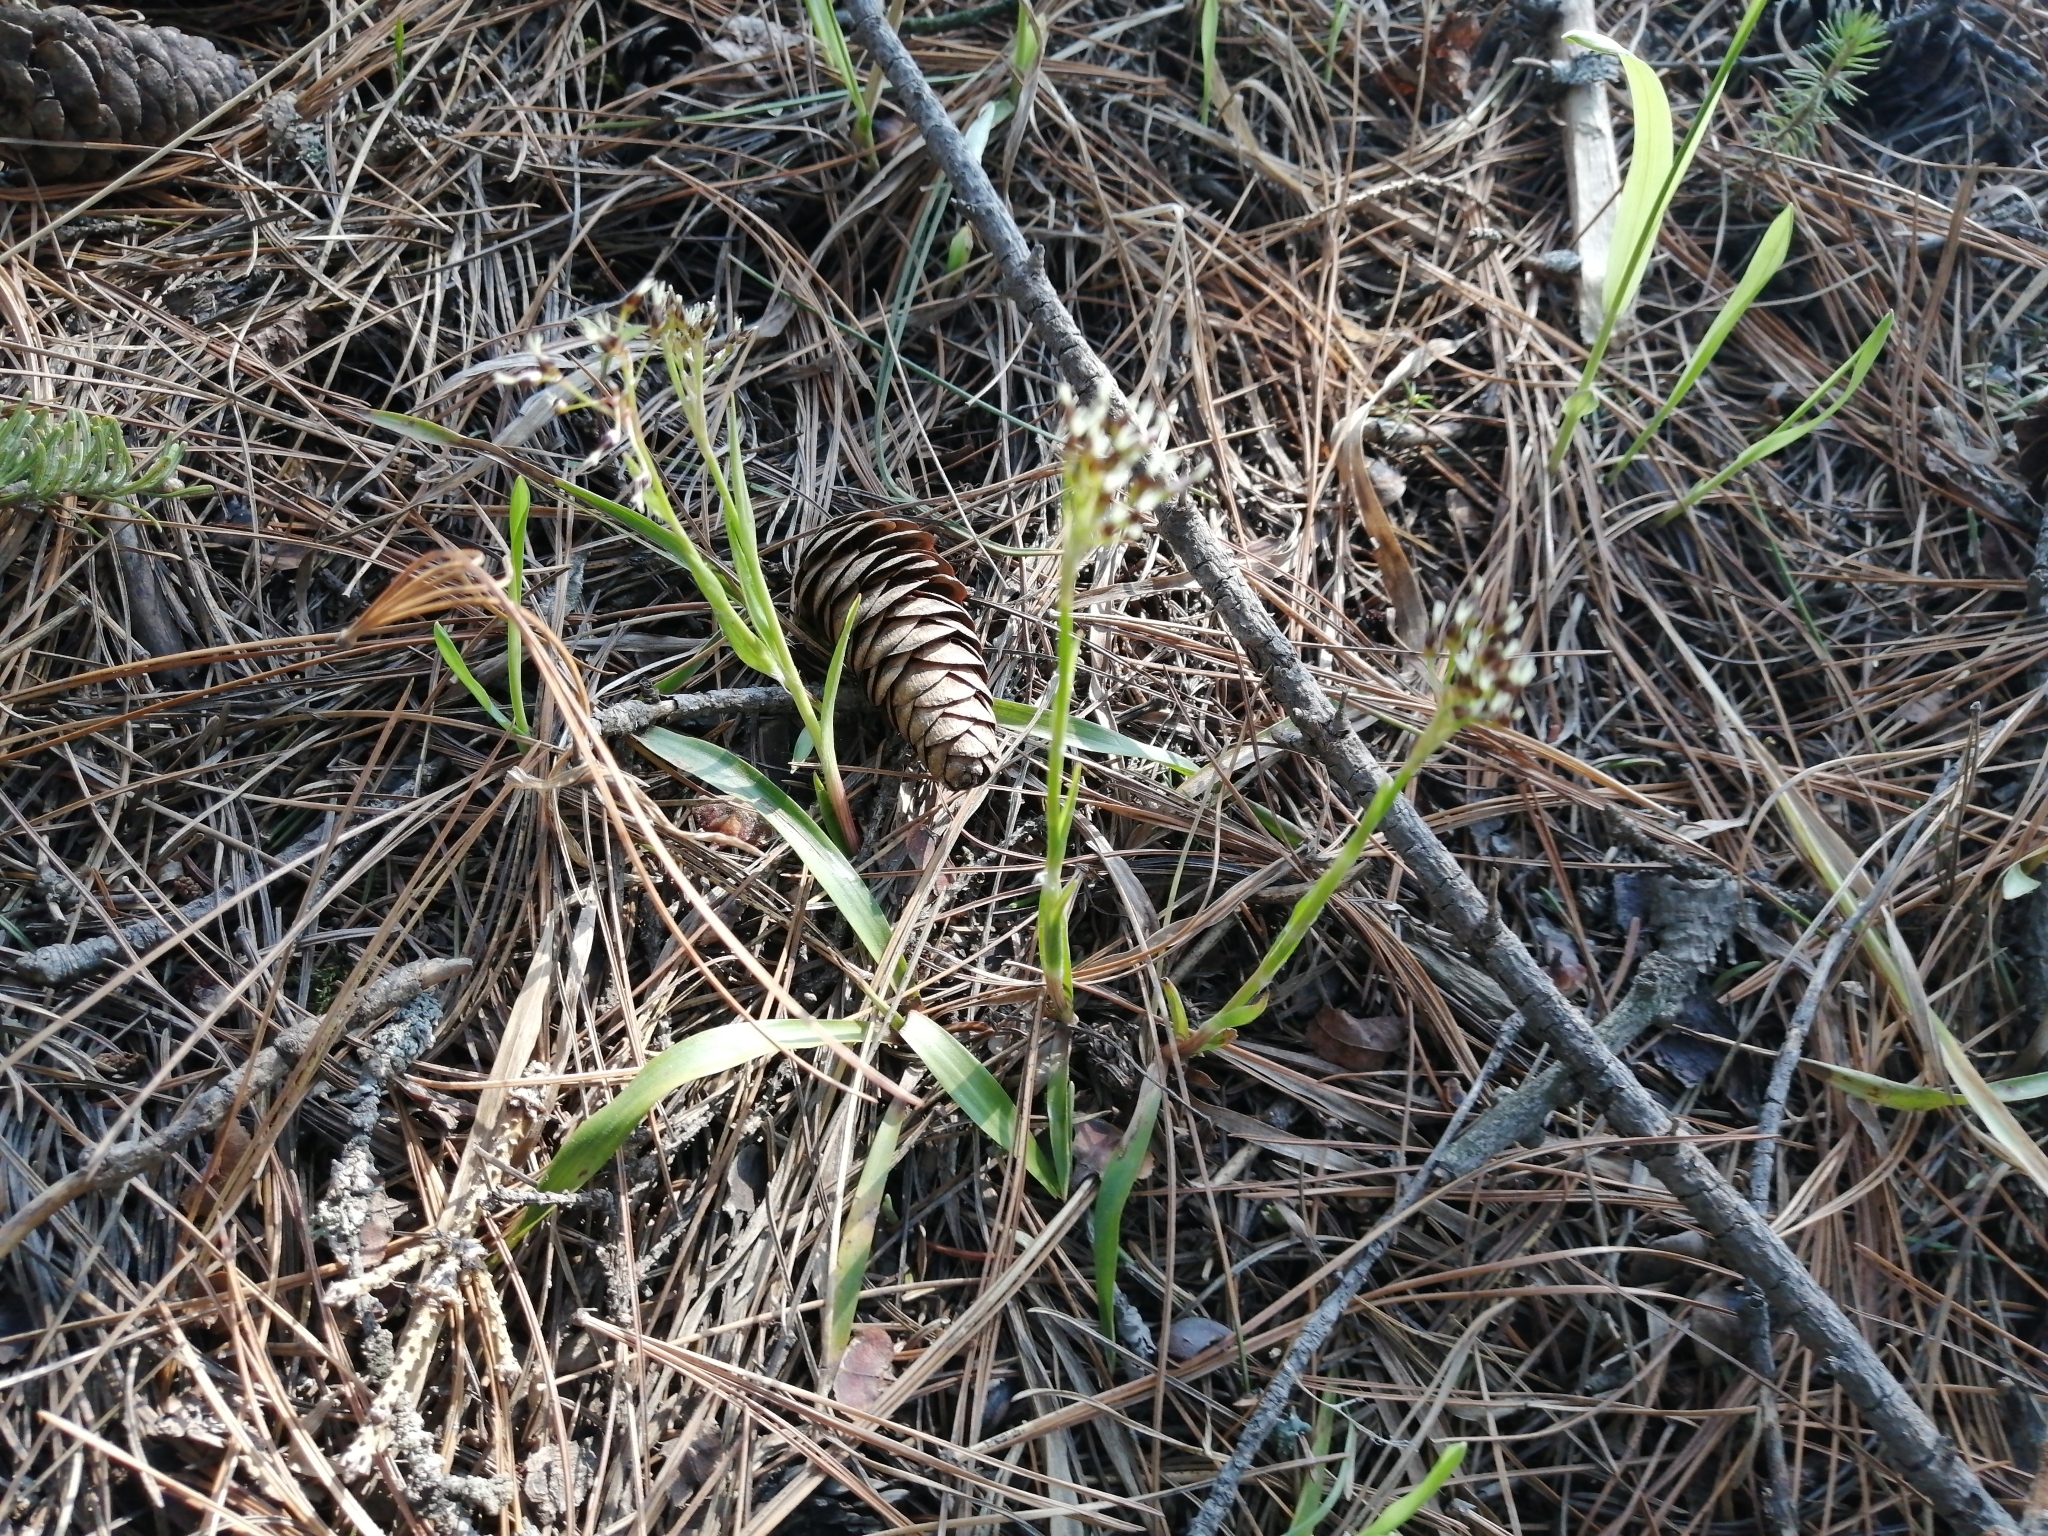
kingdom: Plantae
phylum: Tracheophyta
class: Liliopsida
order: Poales
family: Juncaceae
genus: Luzula
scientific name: Luzula pilosa
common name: Hairy wood-rush
